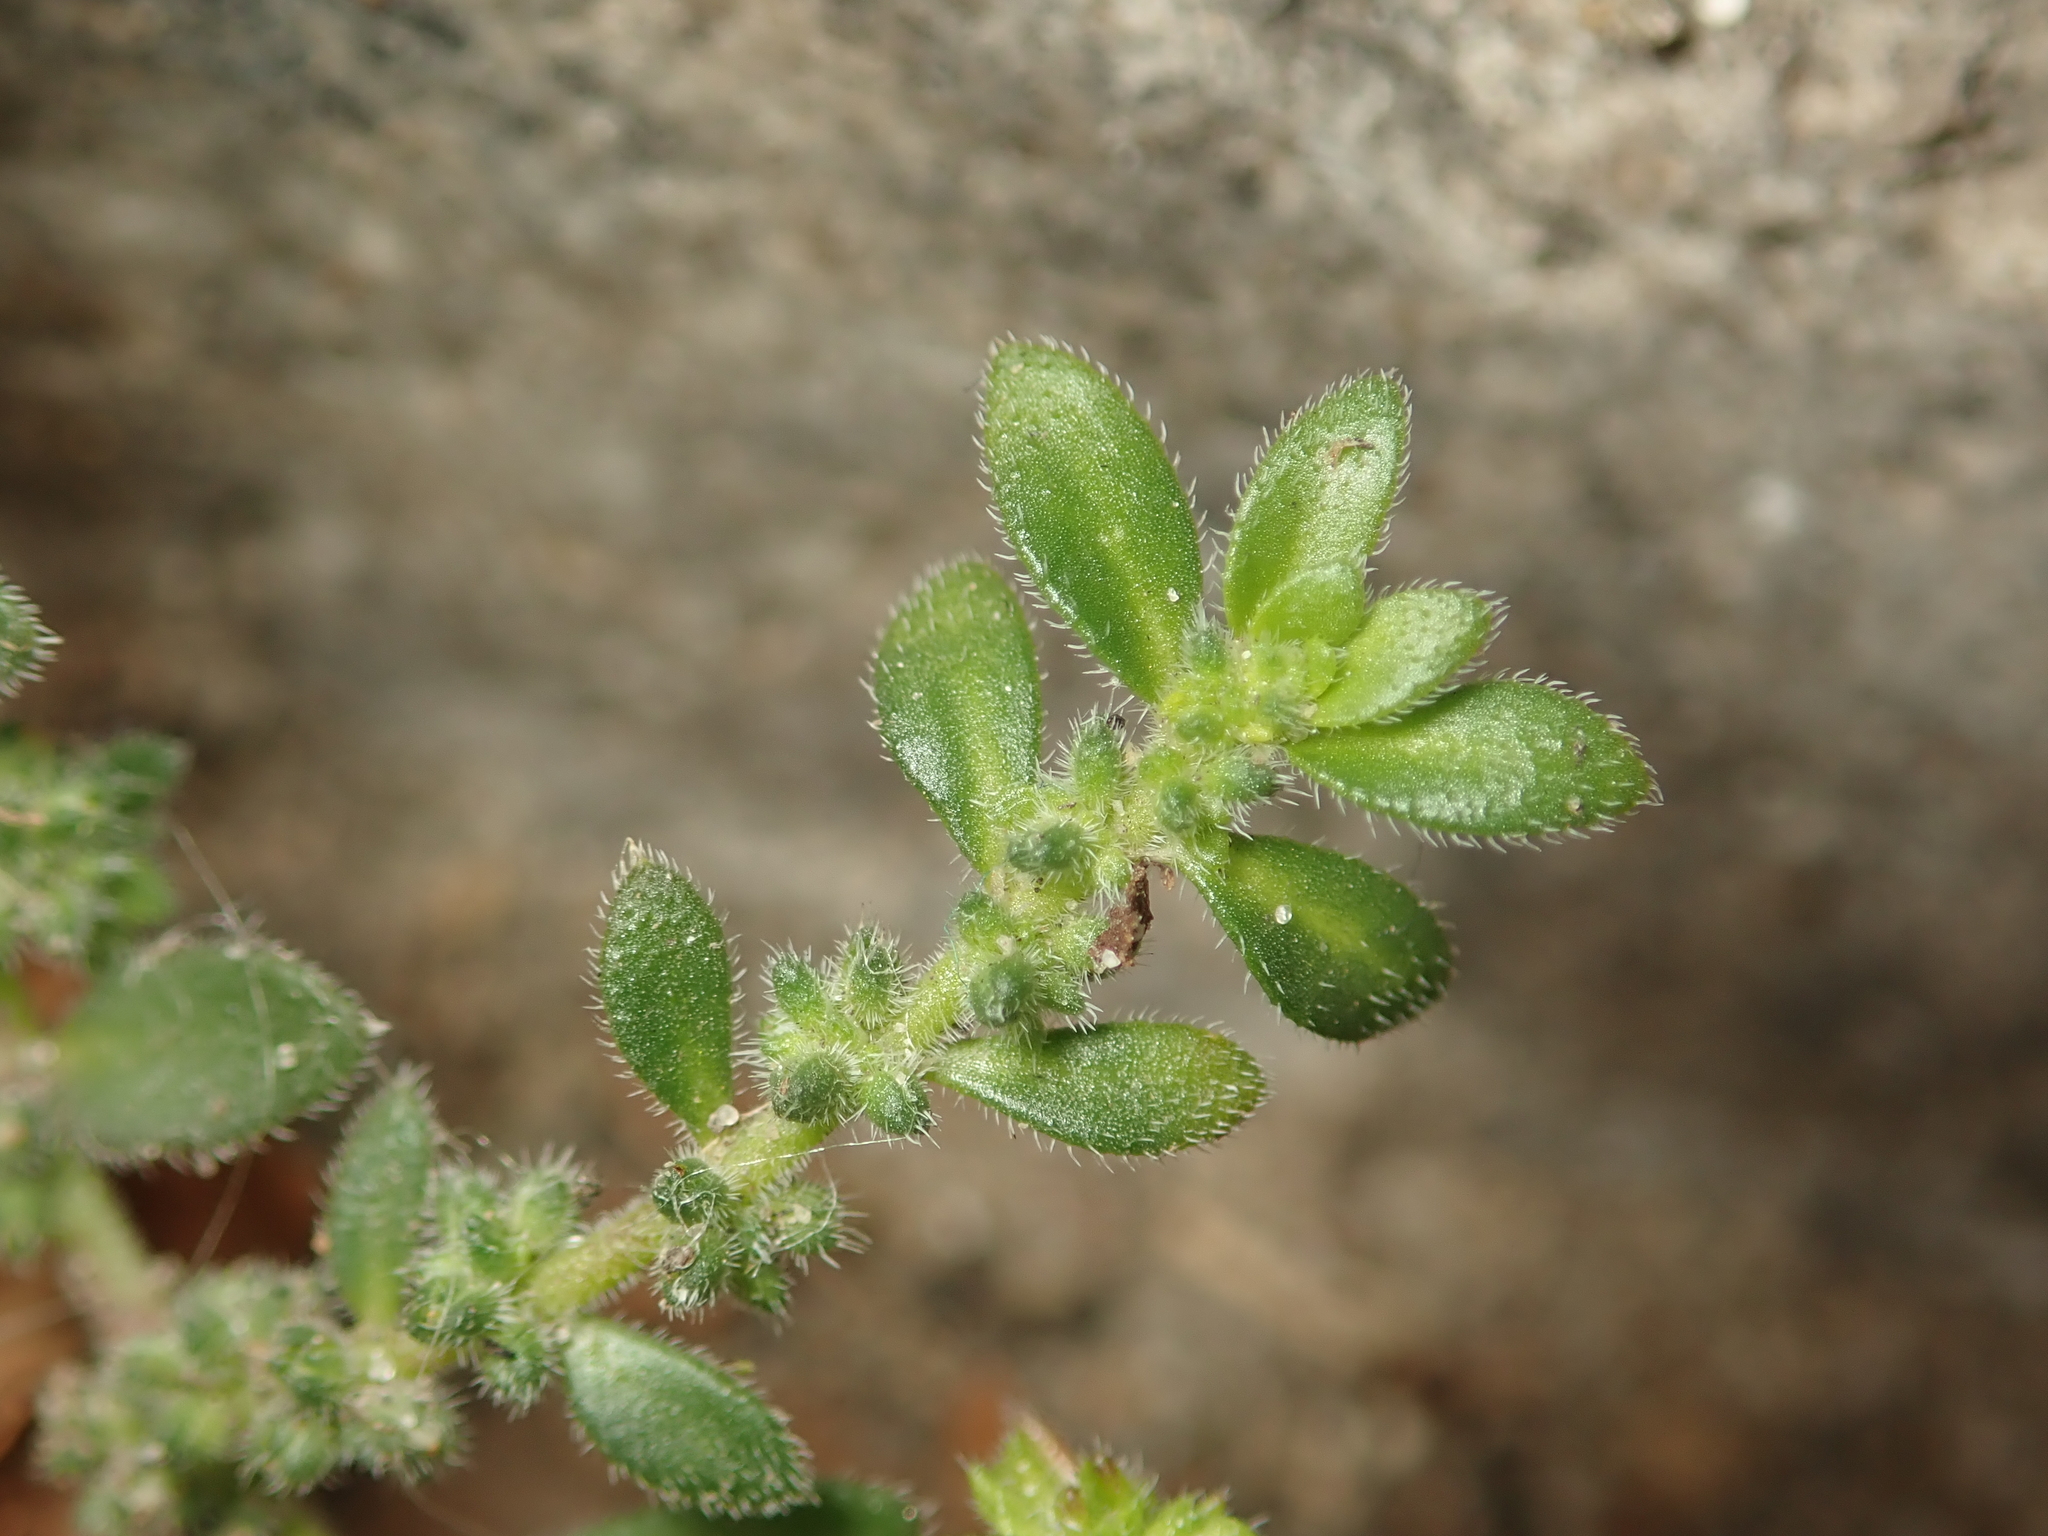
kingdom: Plantae
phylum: Tracheophyta
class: Magnoliopsida
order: Caryophyllales
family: Caryophyllaceae
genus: Herniaria
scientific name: Herniaria hirsuta
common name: Hairy rupturewort
